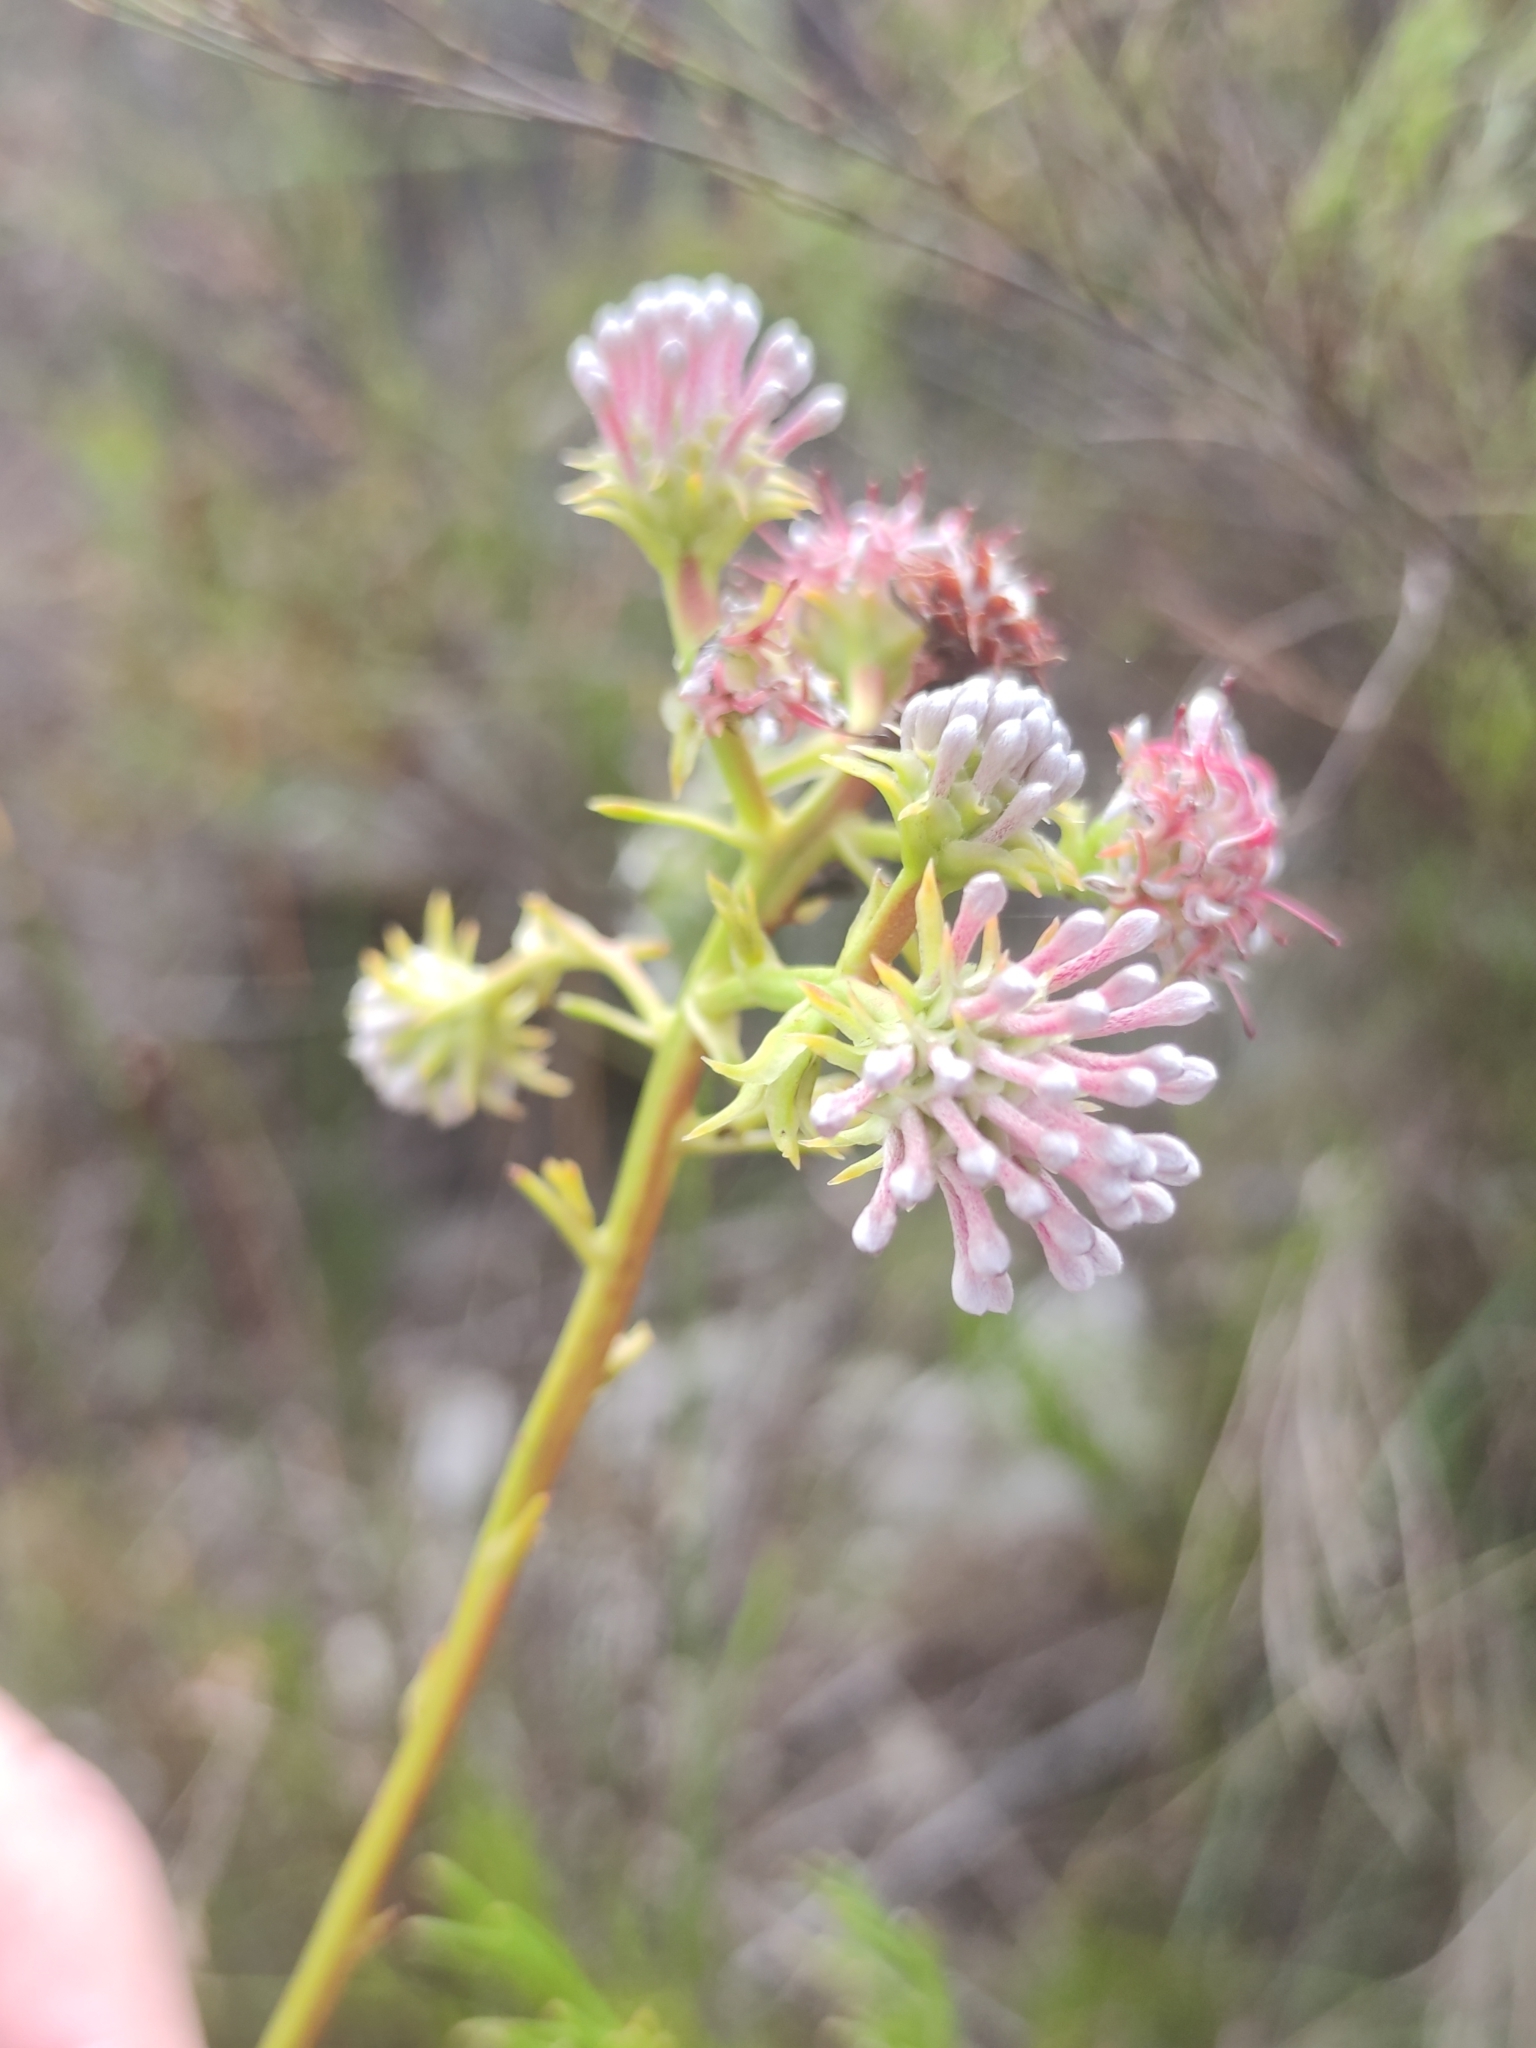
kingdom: Plantae
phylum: Tracheophyta
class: Magnoliopsida
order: Proteales
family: Proteaceae
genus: Serruria
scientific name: Serruria elongata
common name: Long-stalk spiderhead
